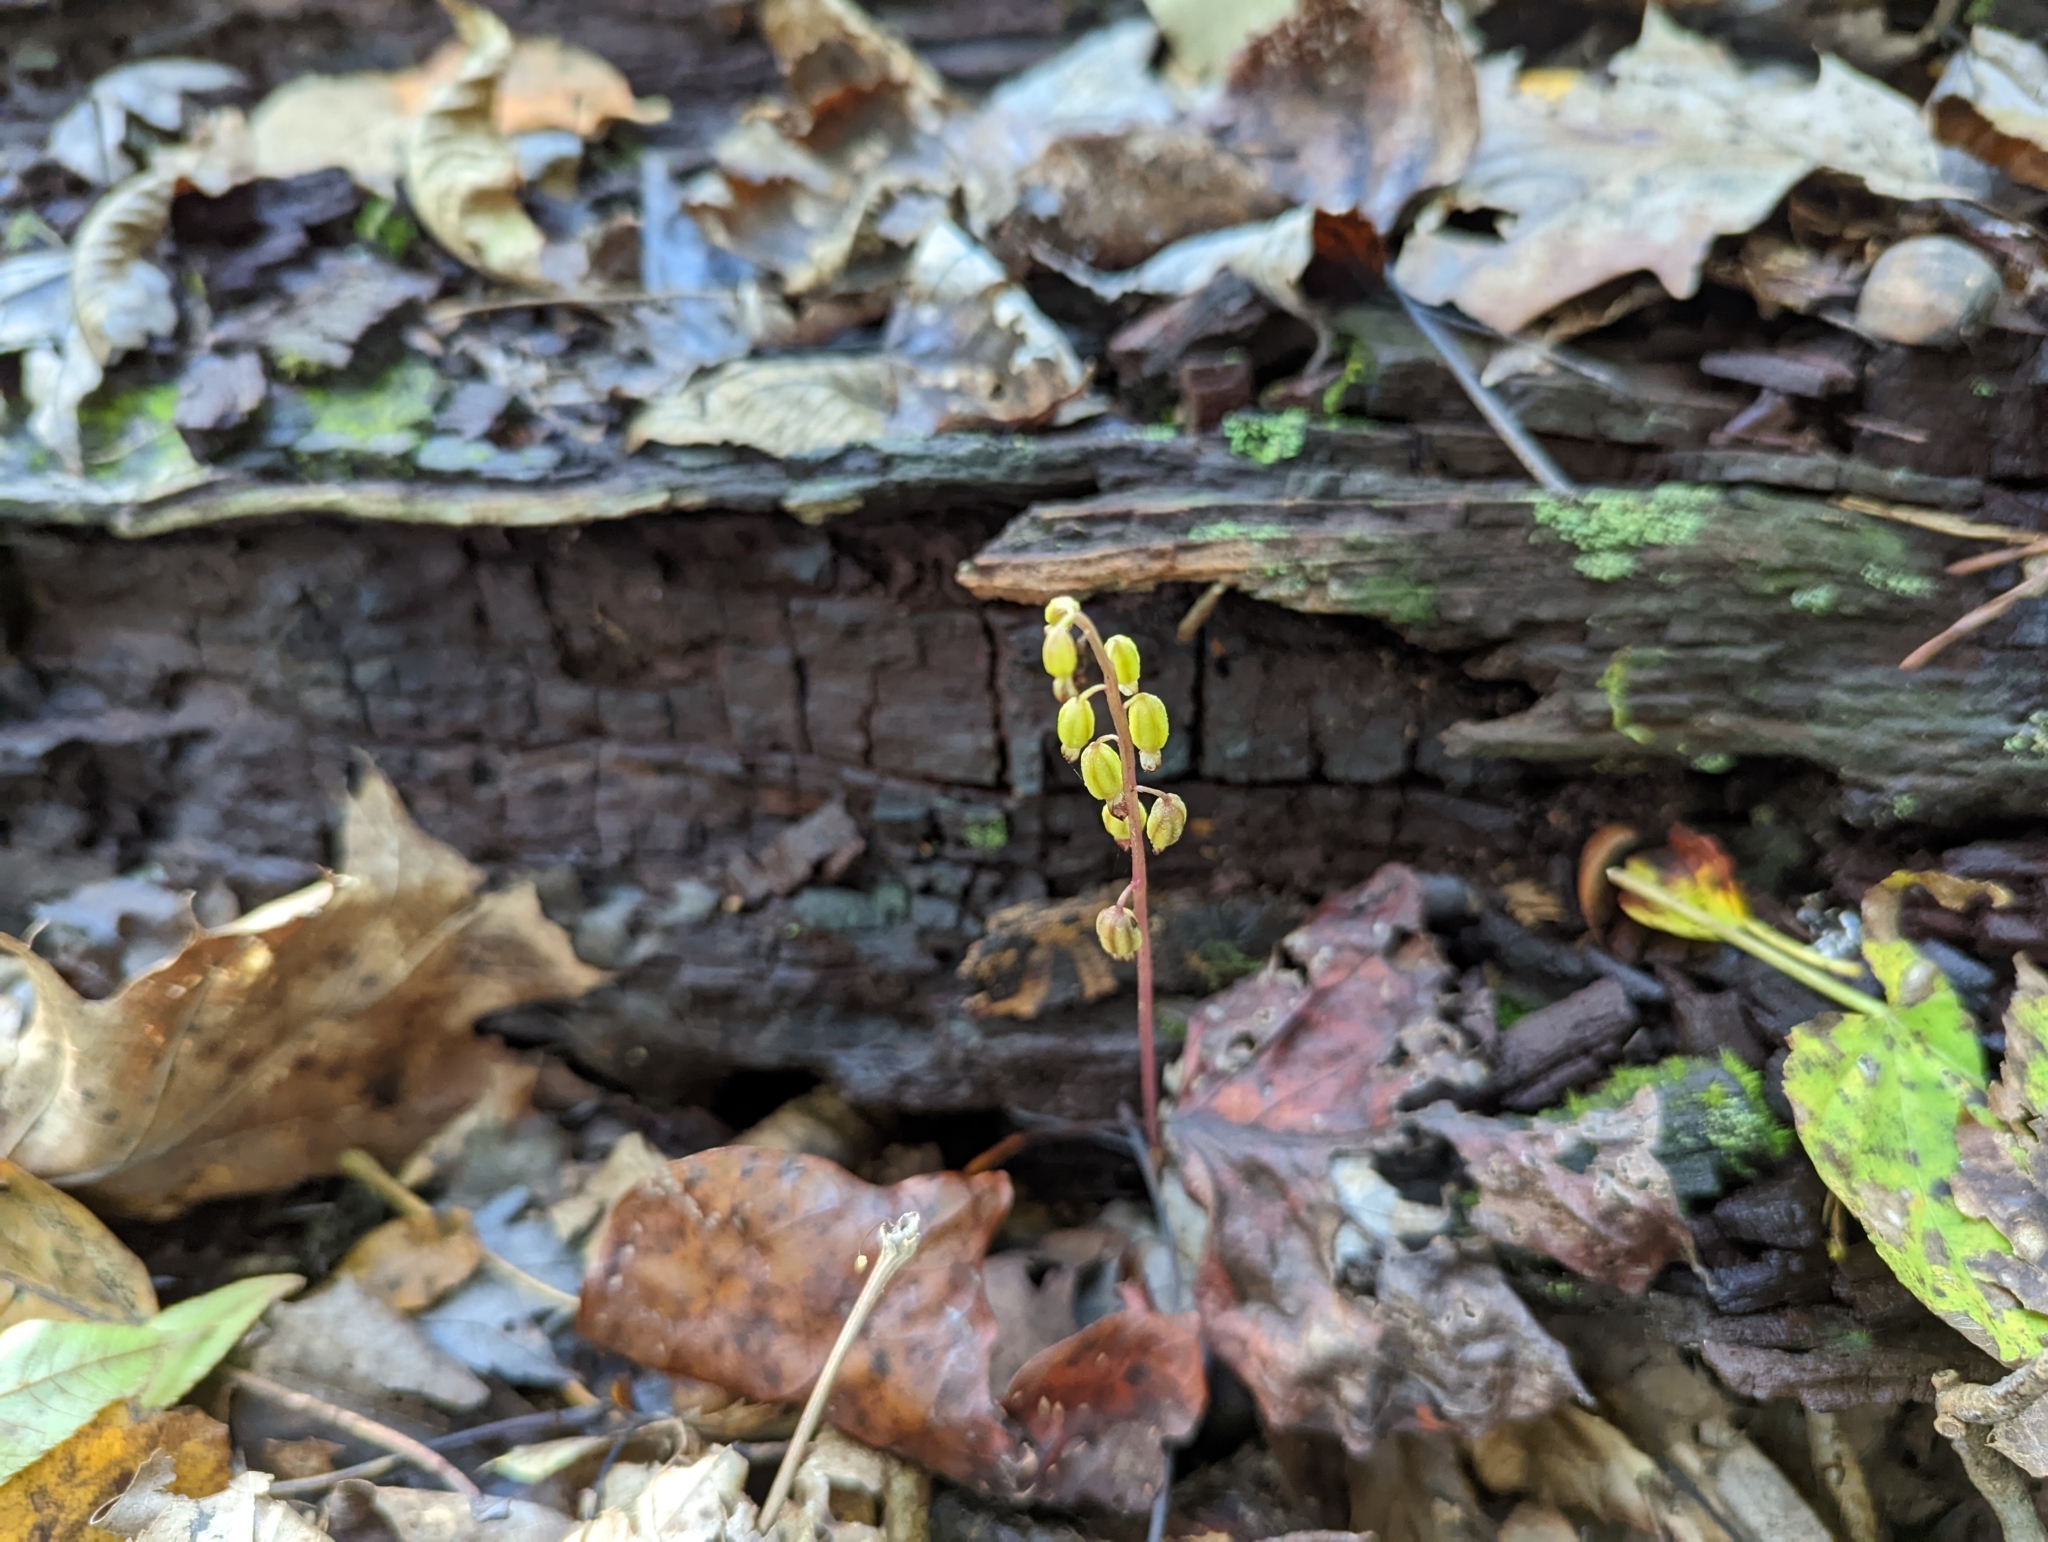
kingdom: Plantae
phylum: Tracheophyta
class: Liliopsida
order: Asparagales
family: Orchidaceae
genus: Corallorhiza
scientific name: Corallorhiza odontorhiza
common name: Autumn coralroot
